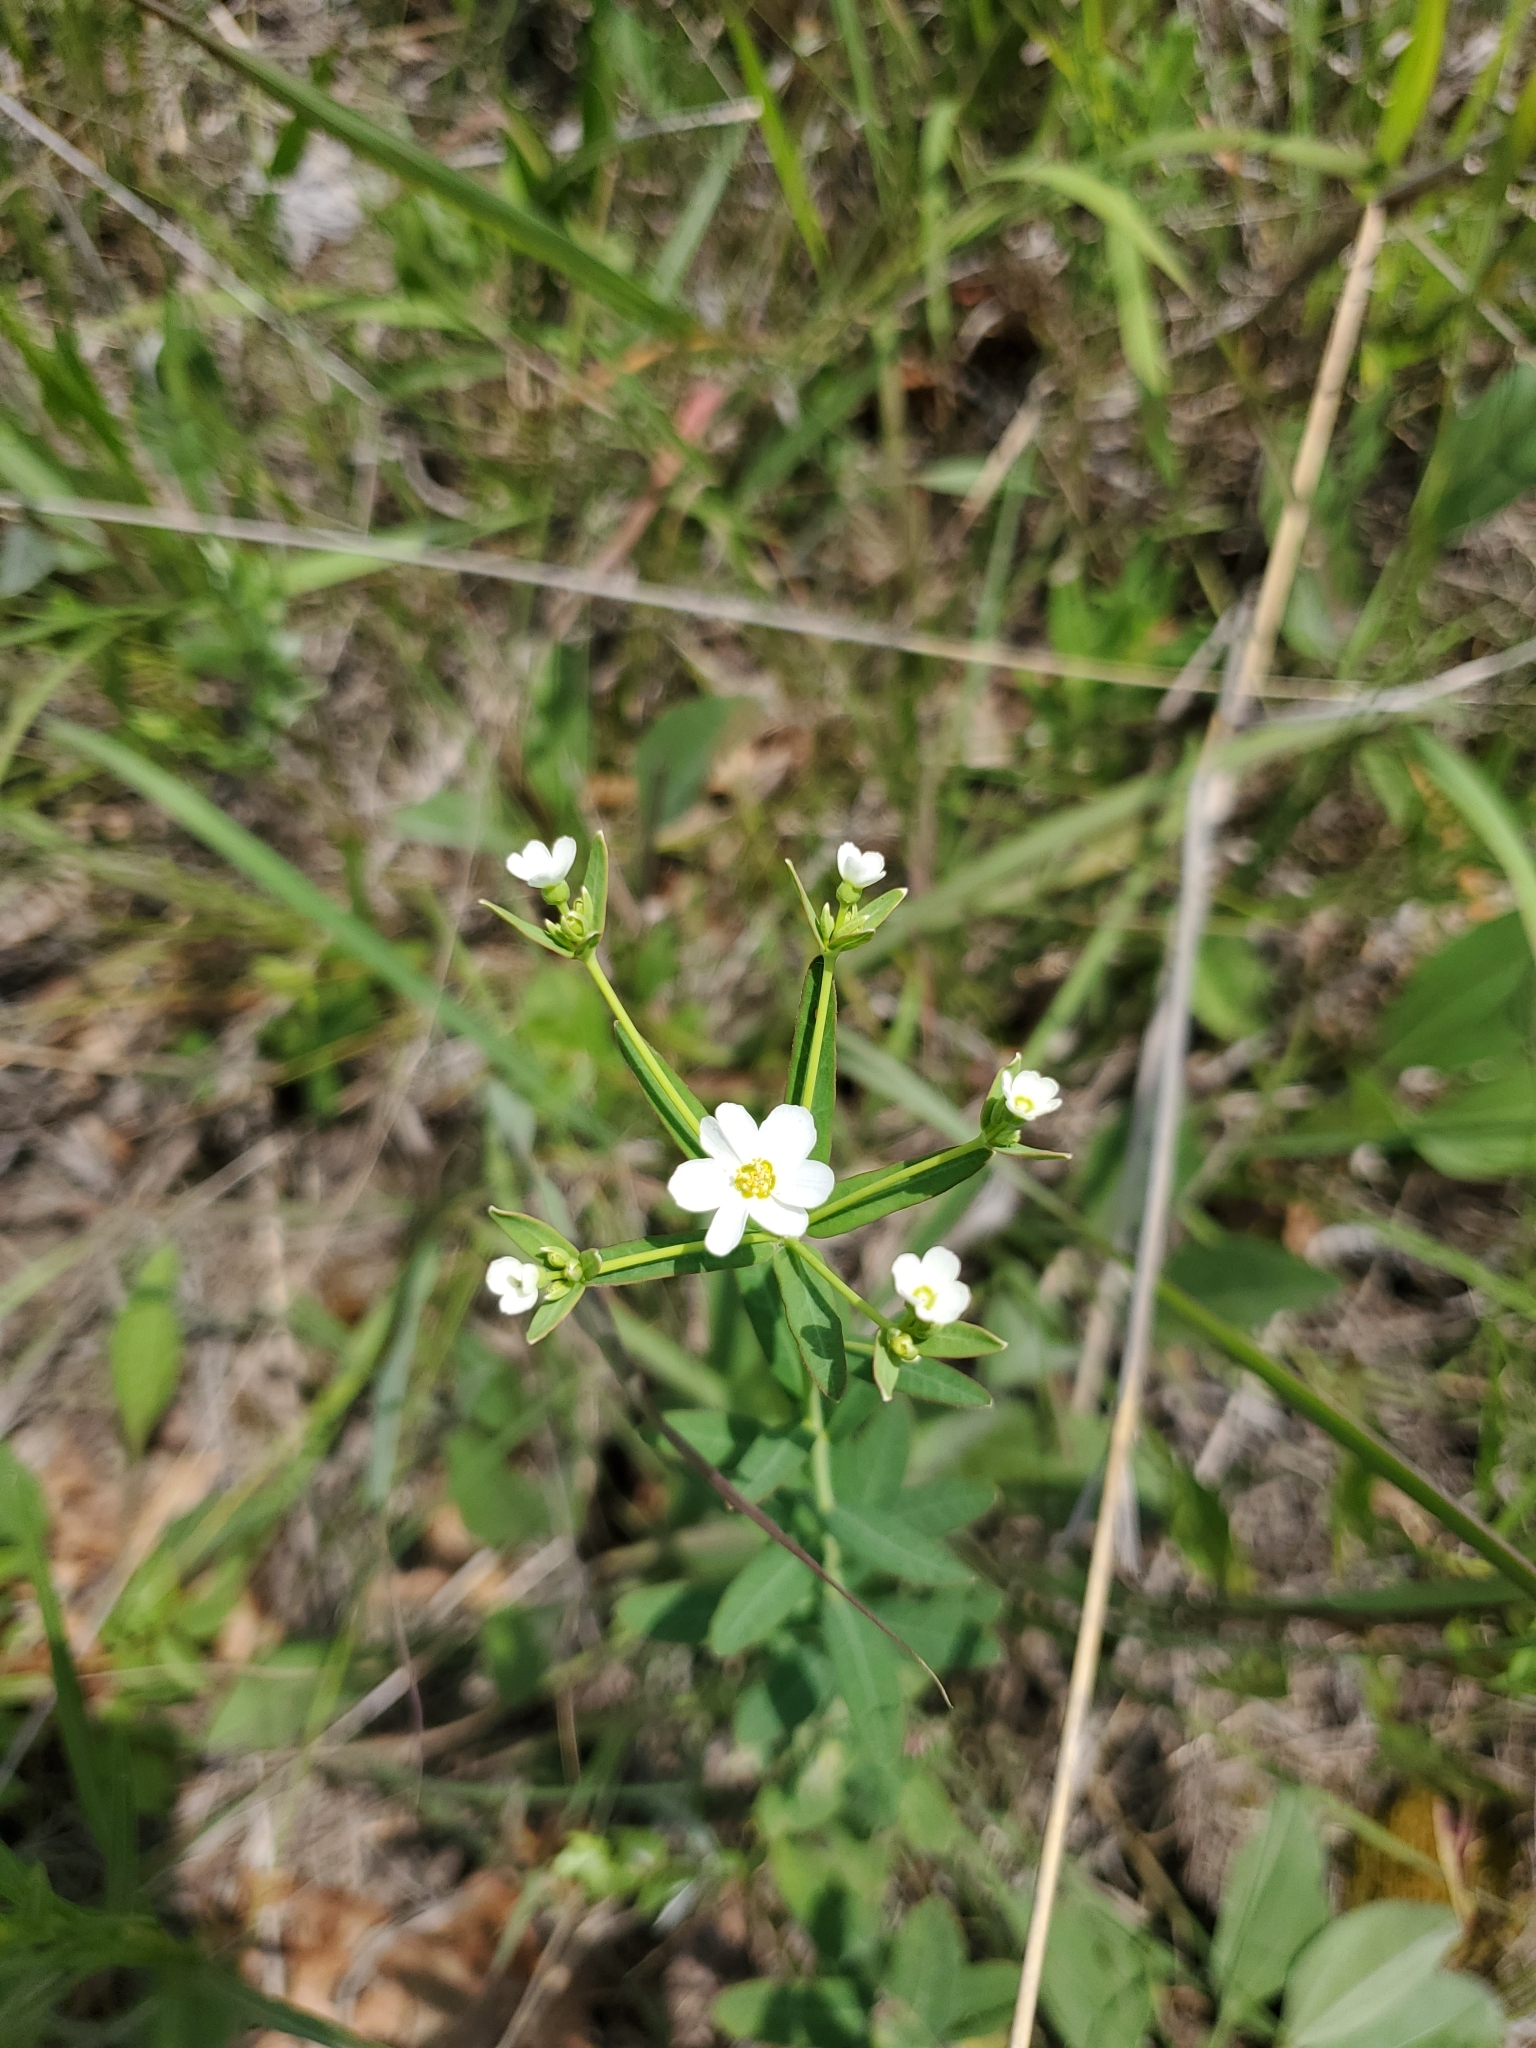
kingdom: Plantae
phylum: Tracheophyta
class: Magnoliopsida
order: Malpighiales
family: Euphorbiaceae
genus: Euphorbia
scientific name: Euphorbia corollata
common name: Flowering spurge
